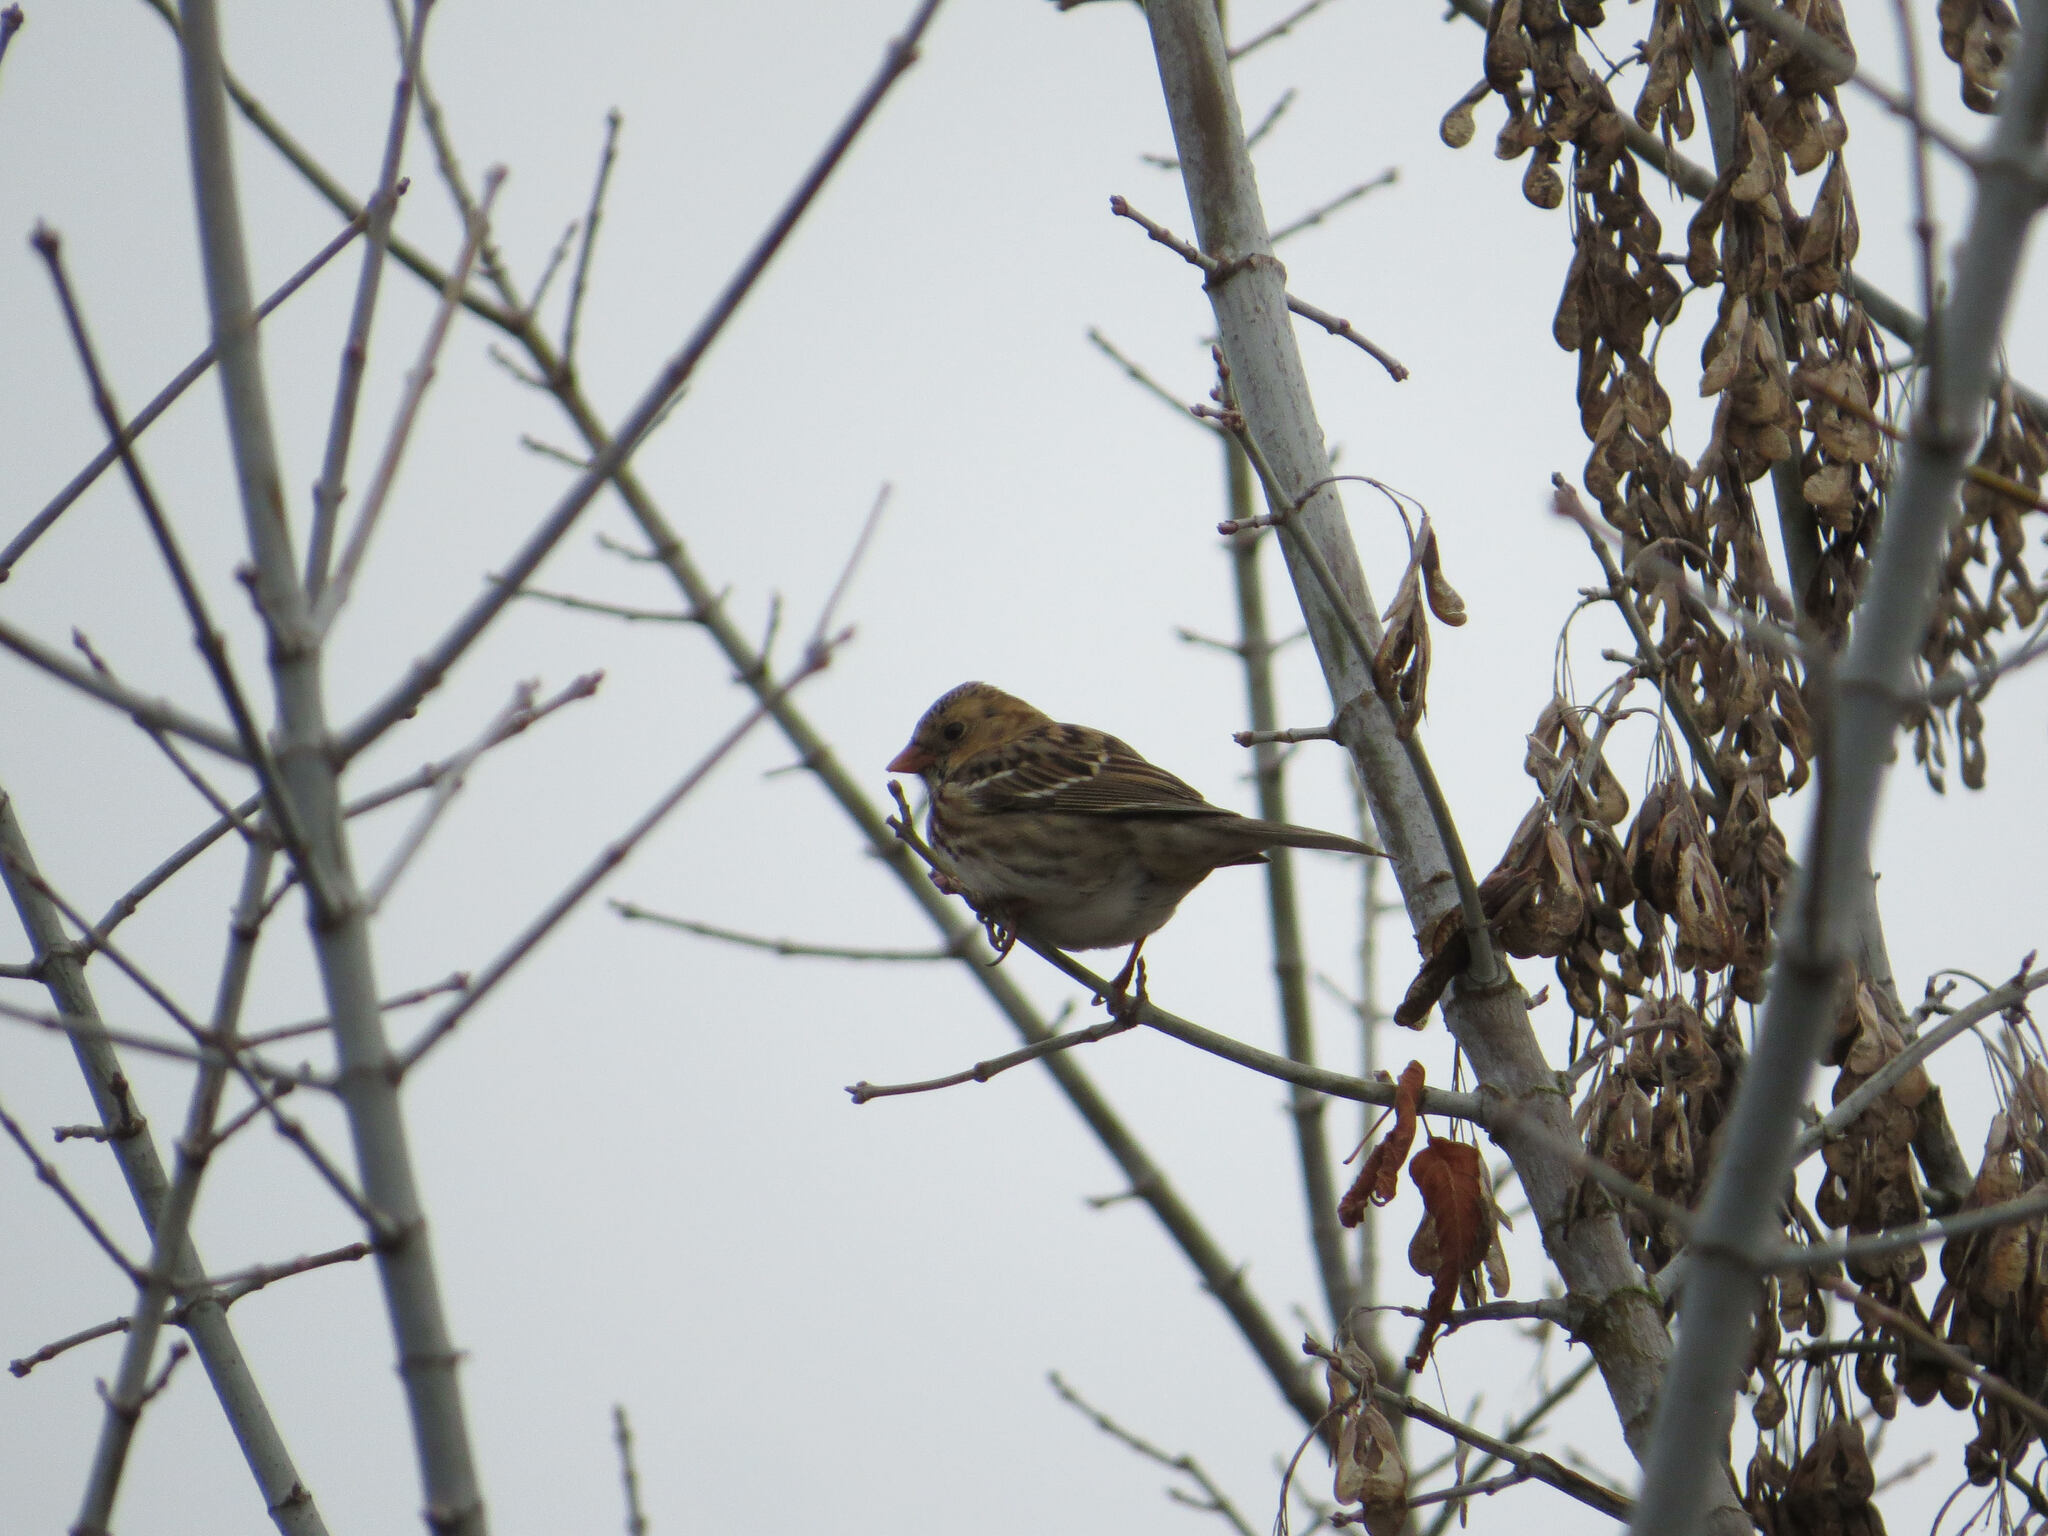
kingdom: Animalia
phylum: Chordata
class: Aves
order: Passeriformes
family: Passerellidae
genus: Zonotrichia
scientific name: Zonotrichia querula
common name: Harris's sparrow
